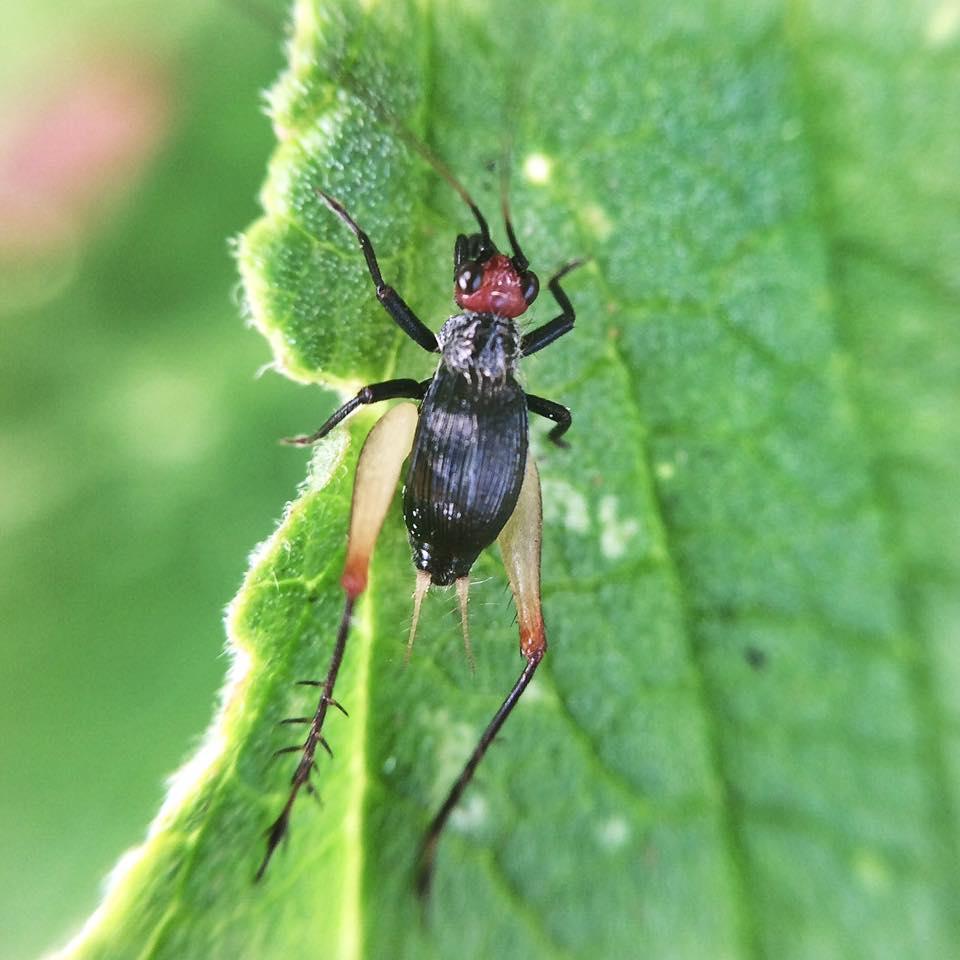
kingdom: Animalia
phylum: Arthropoda
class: Insecta
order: Orthoptera
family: Trigonidiidae
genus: Trigonidium
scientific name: Trigonidium erythrocephalum
